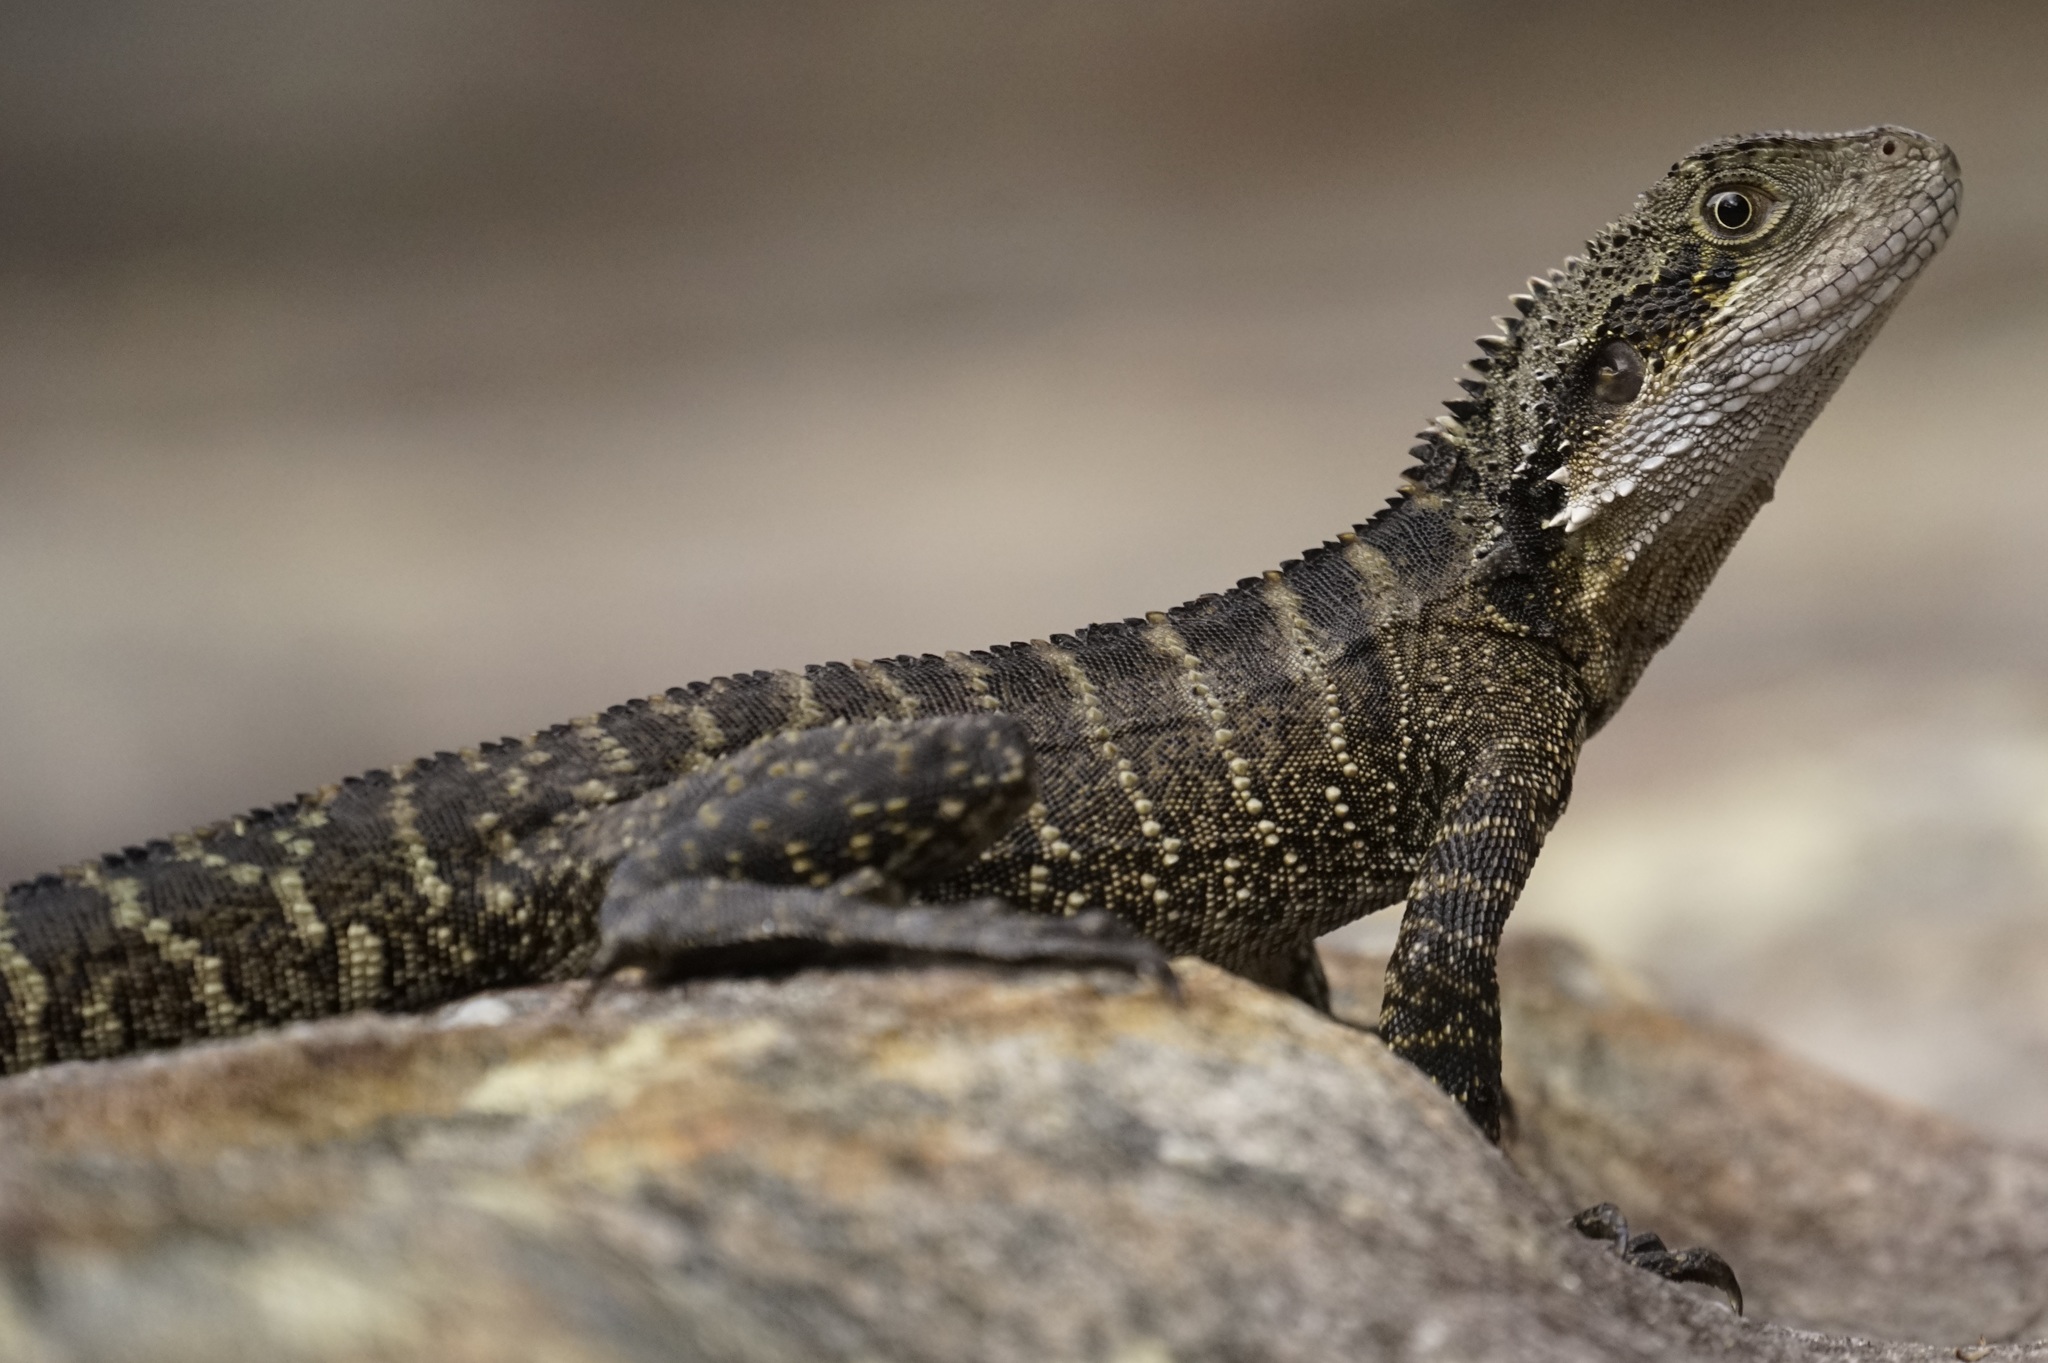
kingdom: Animalia
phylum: Chordata
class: Squamata
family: Agamidae
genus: Intellagama
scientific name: Intellagama lesueurii
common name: Eastern water dragon
